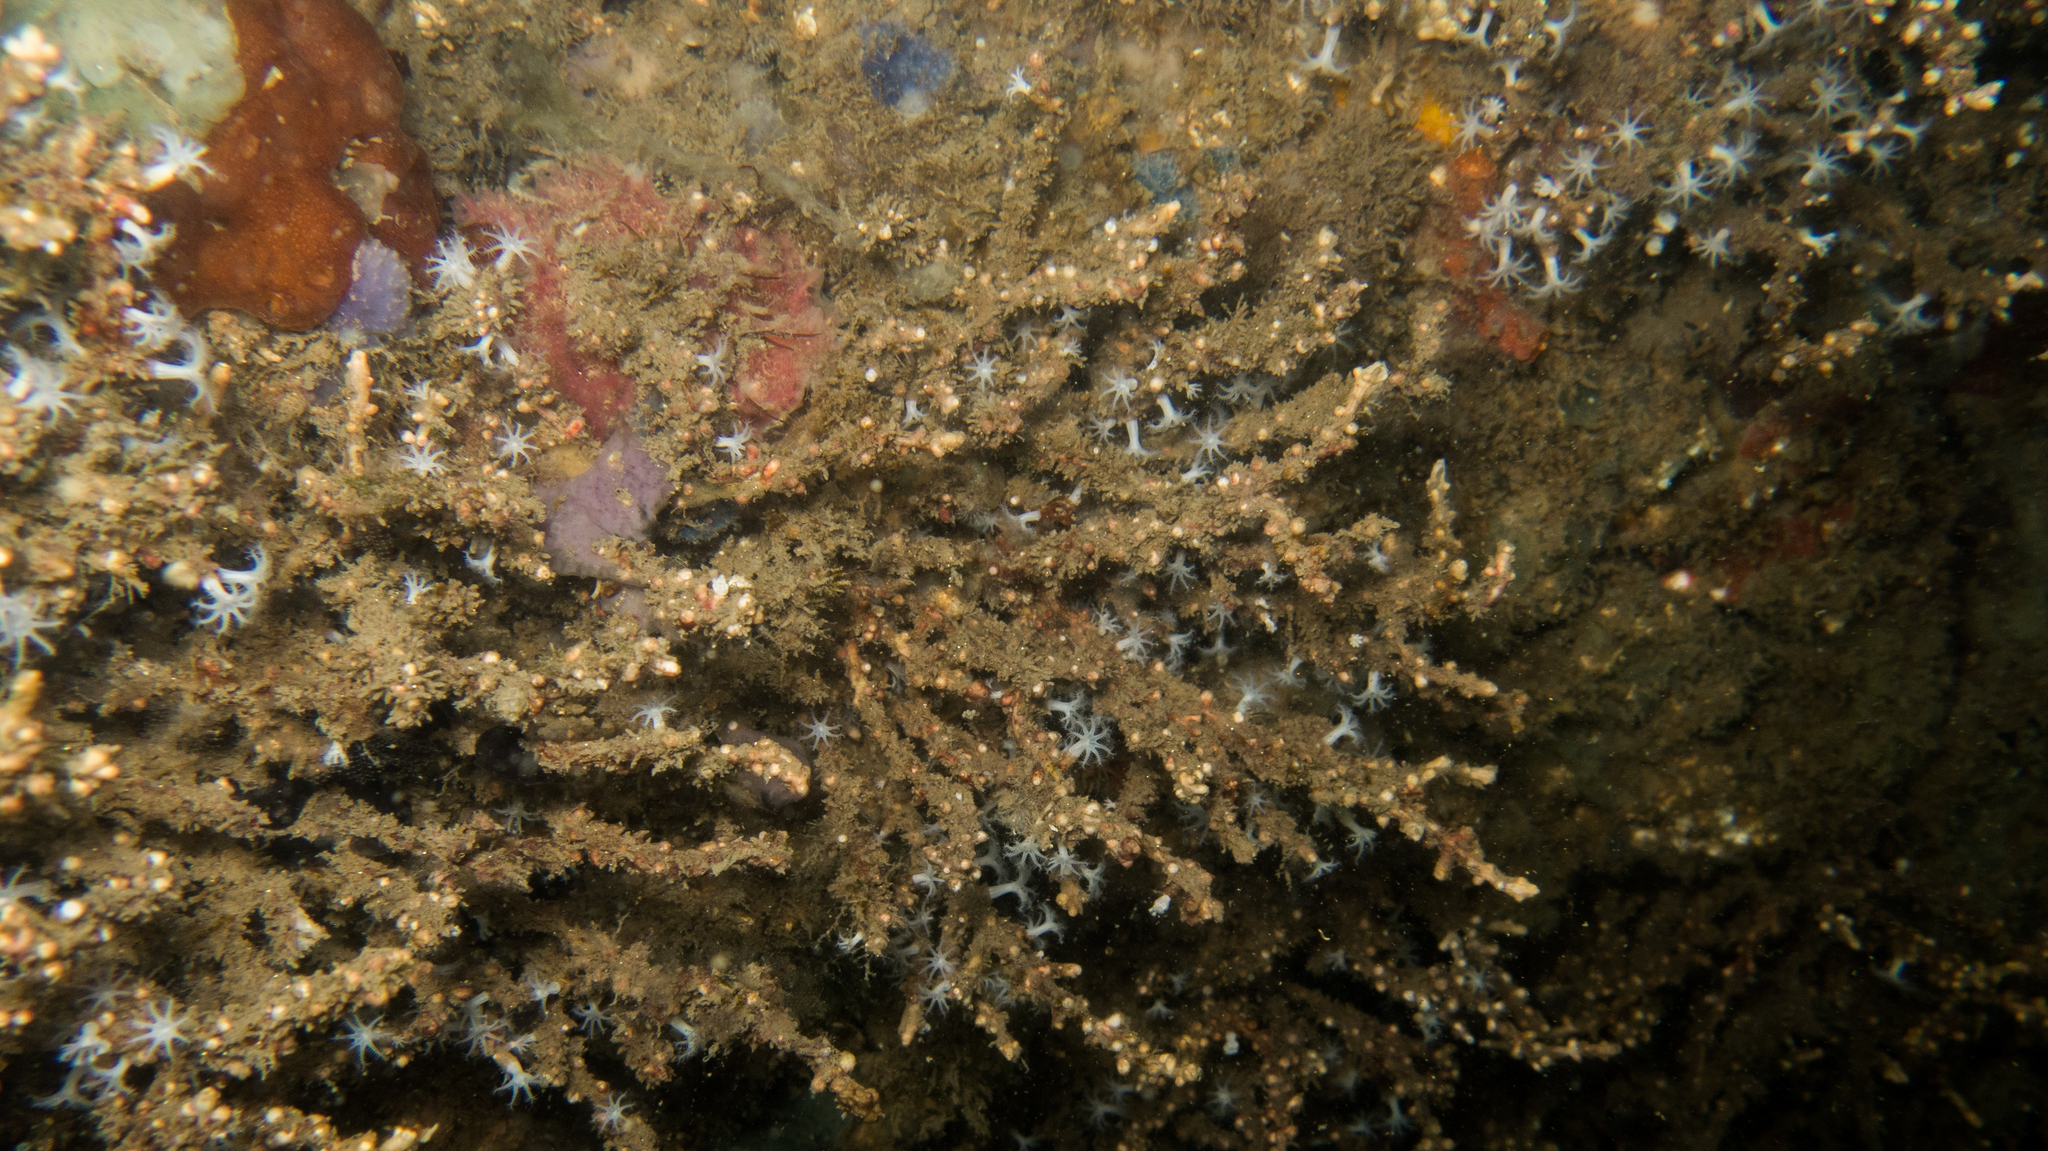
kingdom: Animalia
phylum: Cnidaria
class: Anthozoa
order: Malacalcyonacea
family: Carijoidae
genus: Carijoa
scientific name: Carijoa riisei
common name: Snowflake coral
